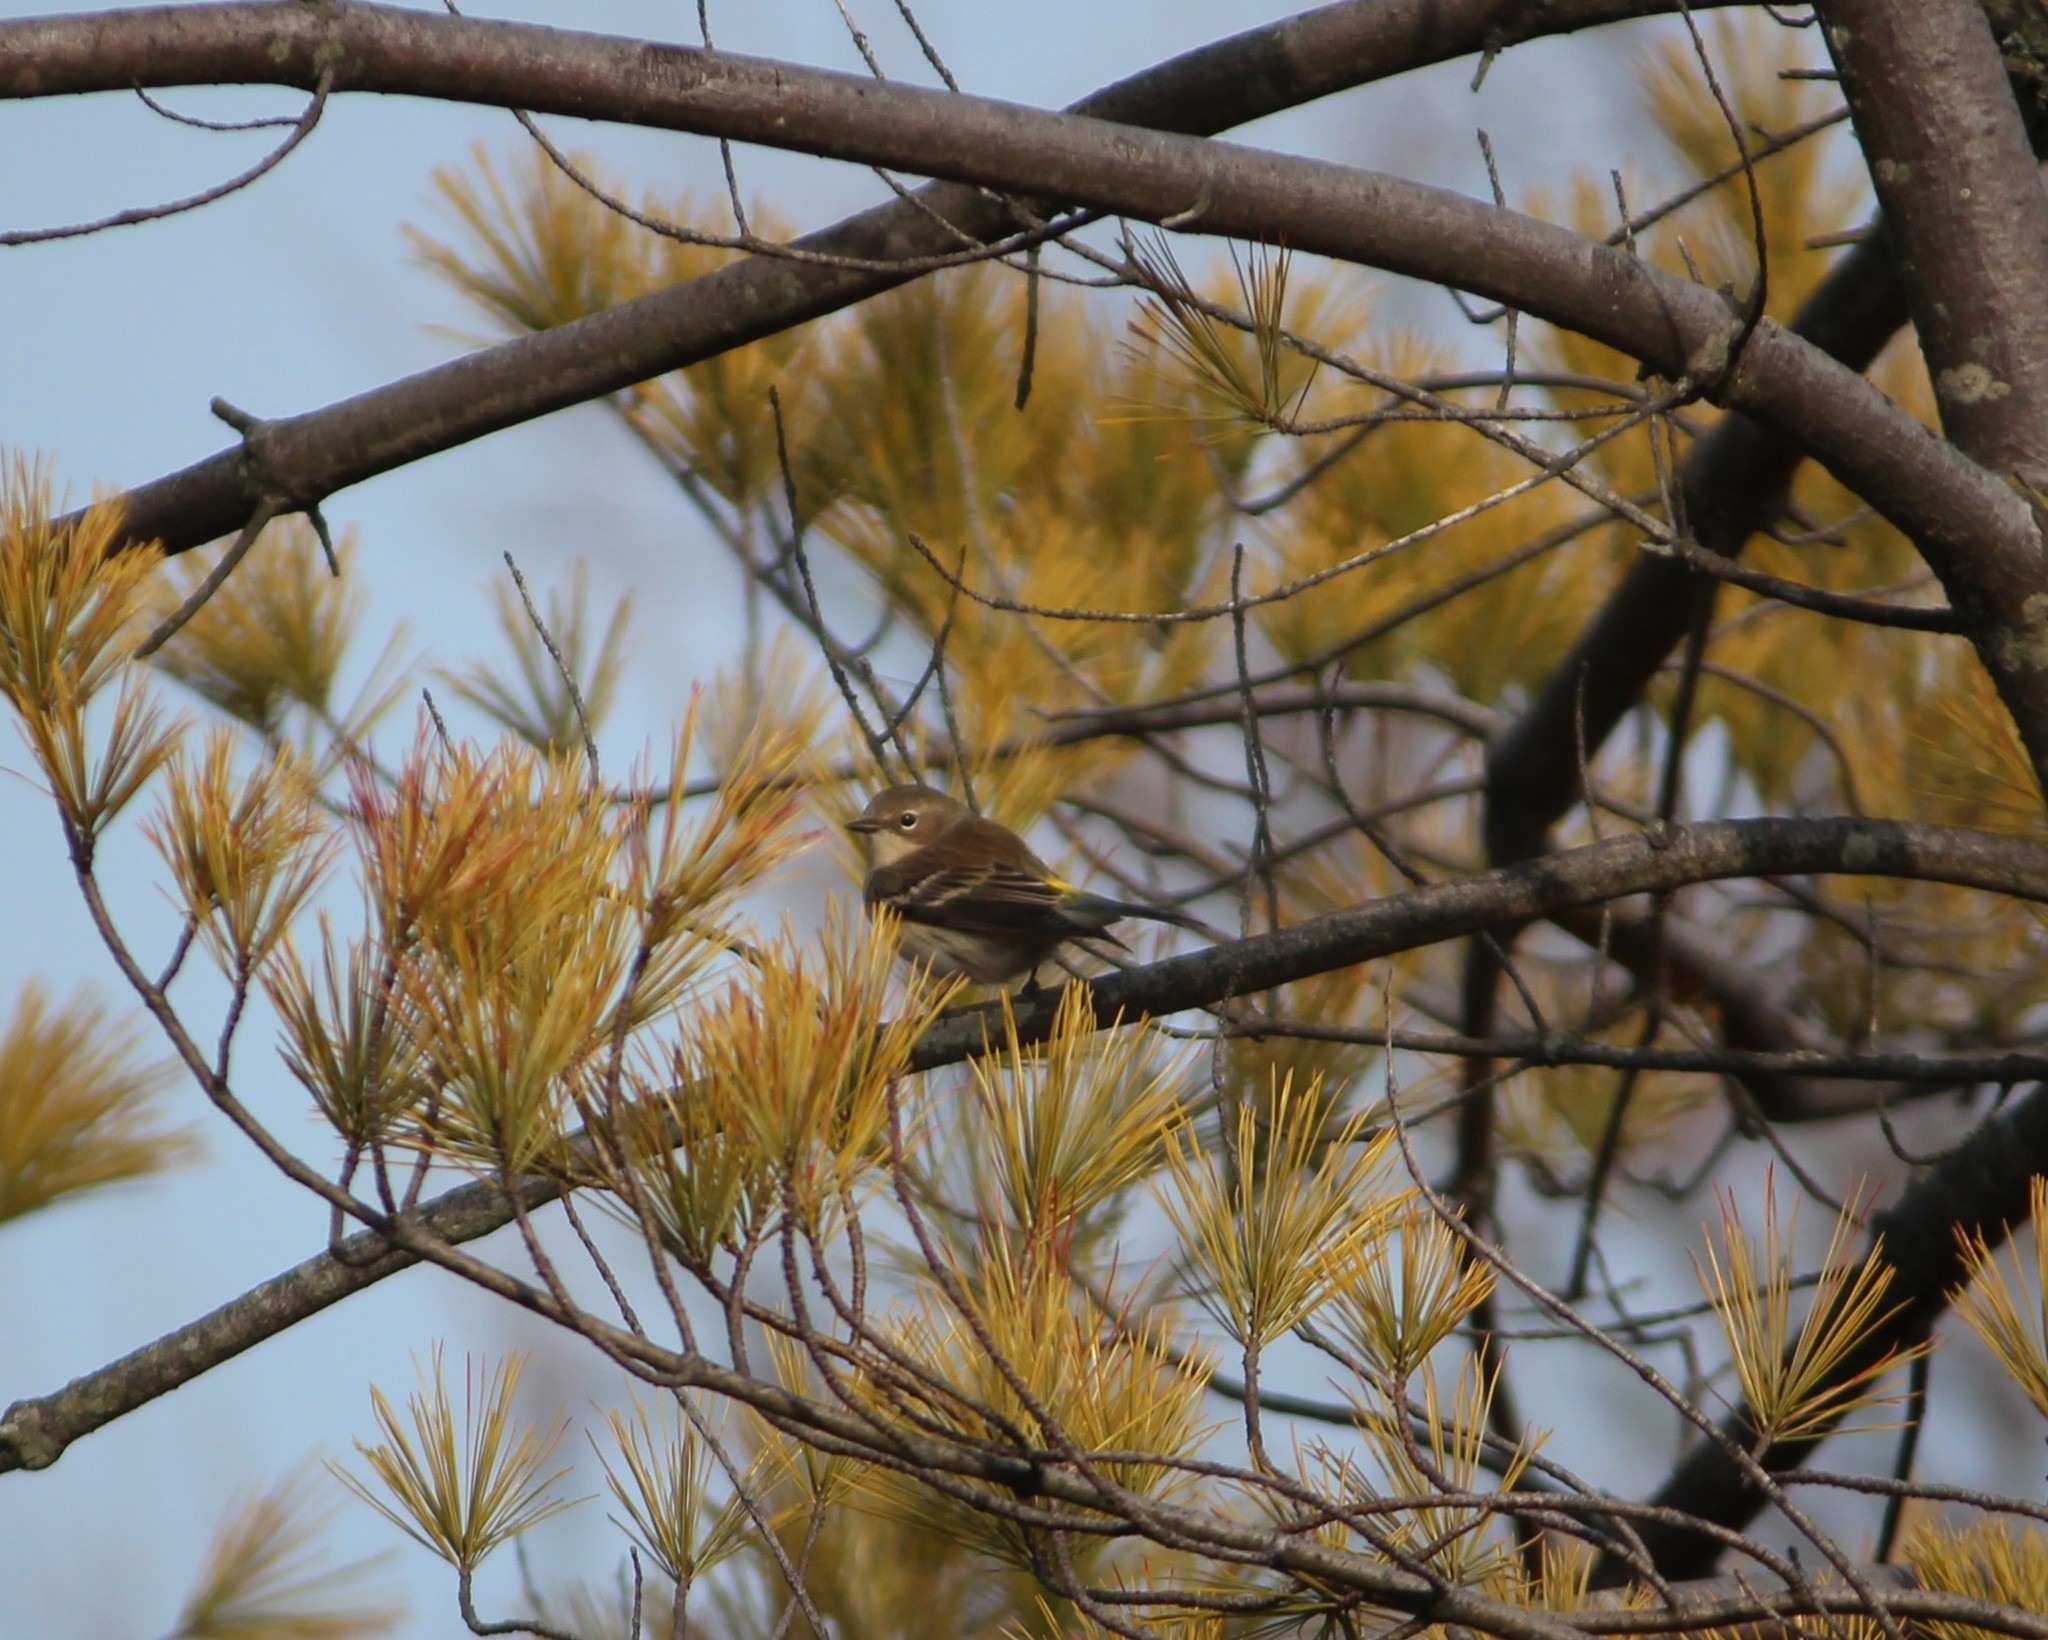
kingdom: Animalia
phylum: Chordata
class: Aves
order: Passeriformes
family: Parulidae
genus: Setophaga
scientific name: Setophaga coronata
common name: Myrtle warbler
